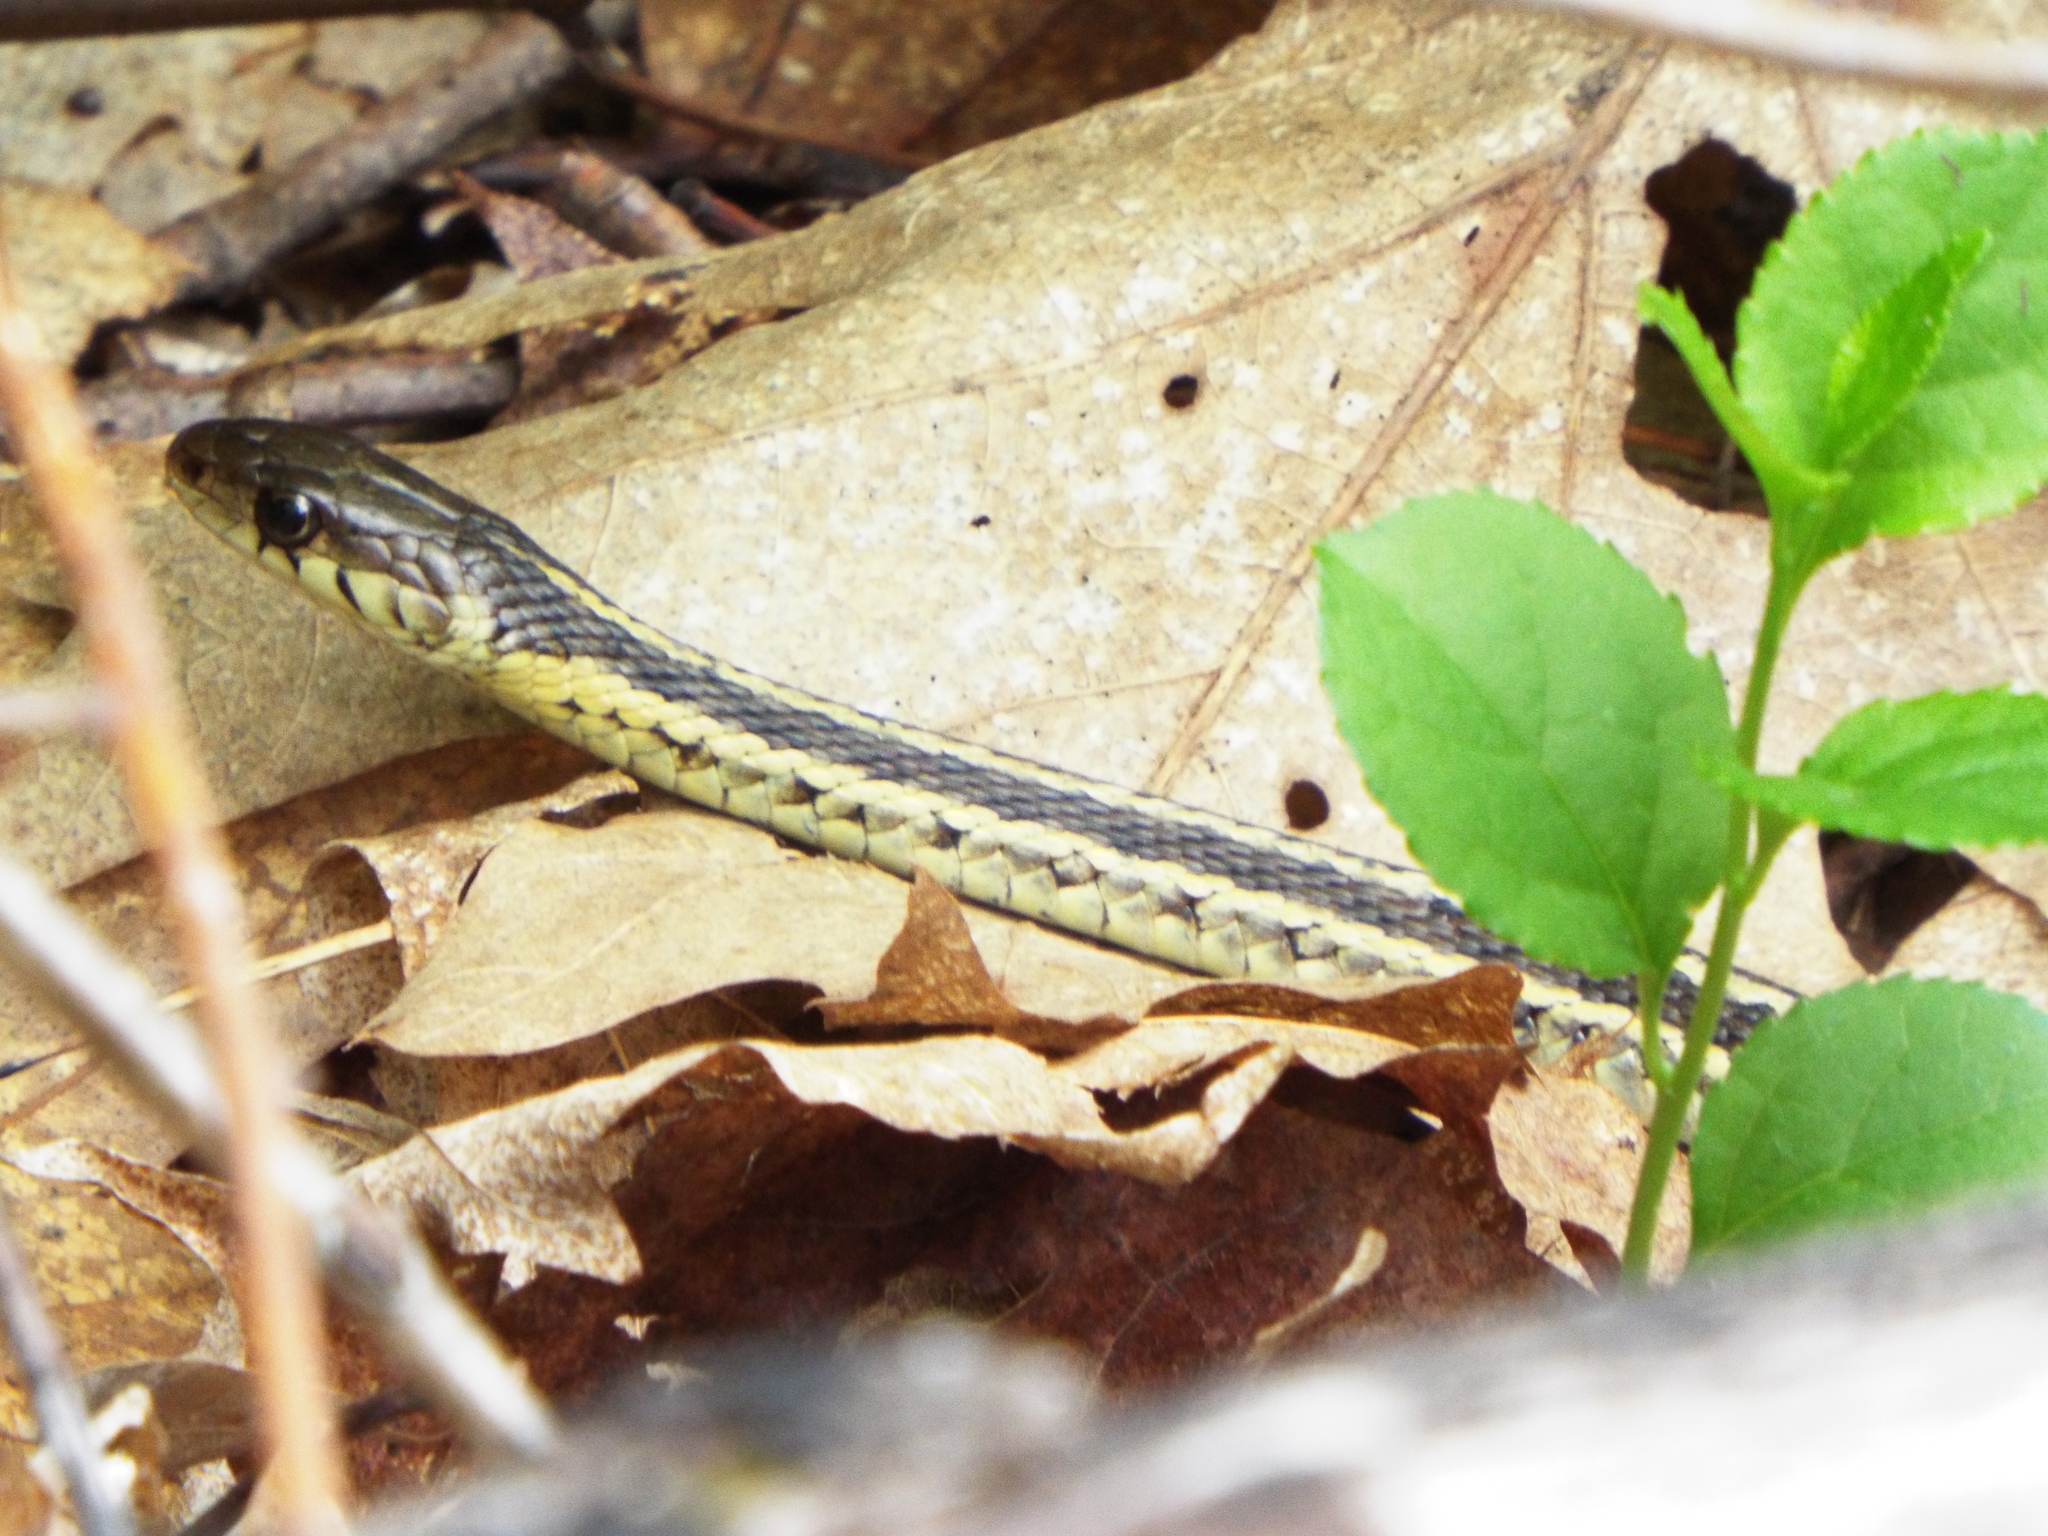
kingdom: Animalia
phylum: Chordata
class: Squamata
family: Colubridae
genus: Thamnophis
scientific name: Thamnophis sirtalis
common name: Common garter snake
